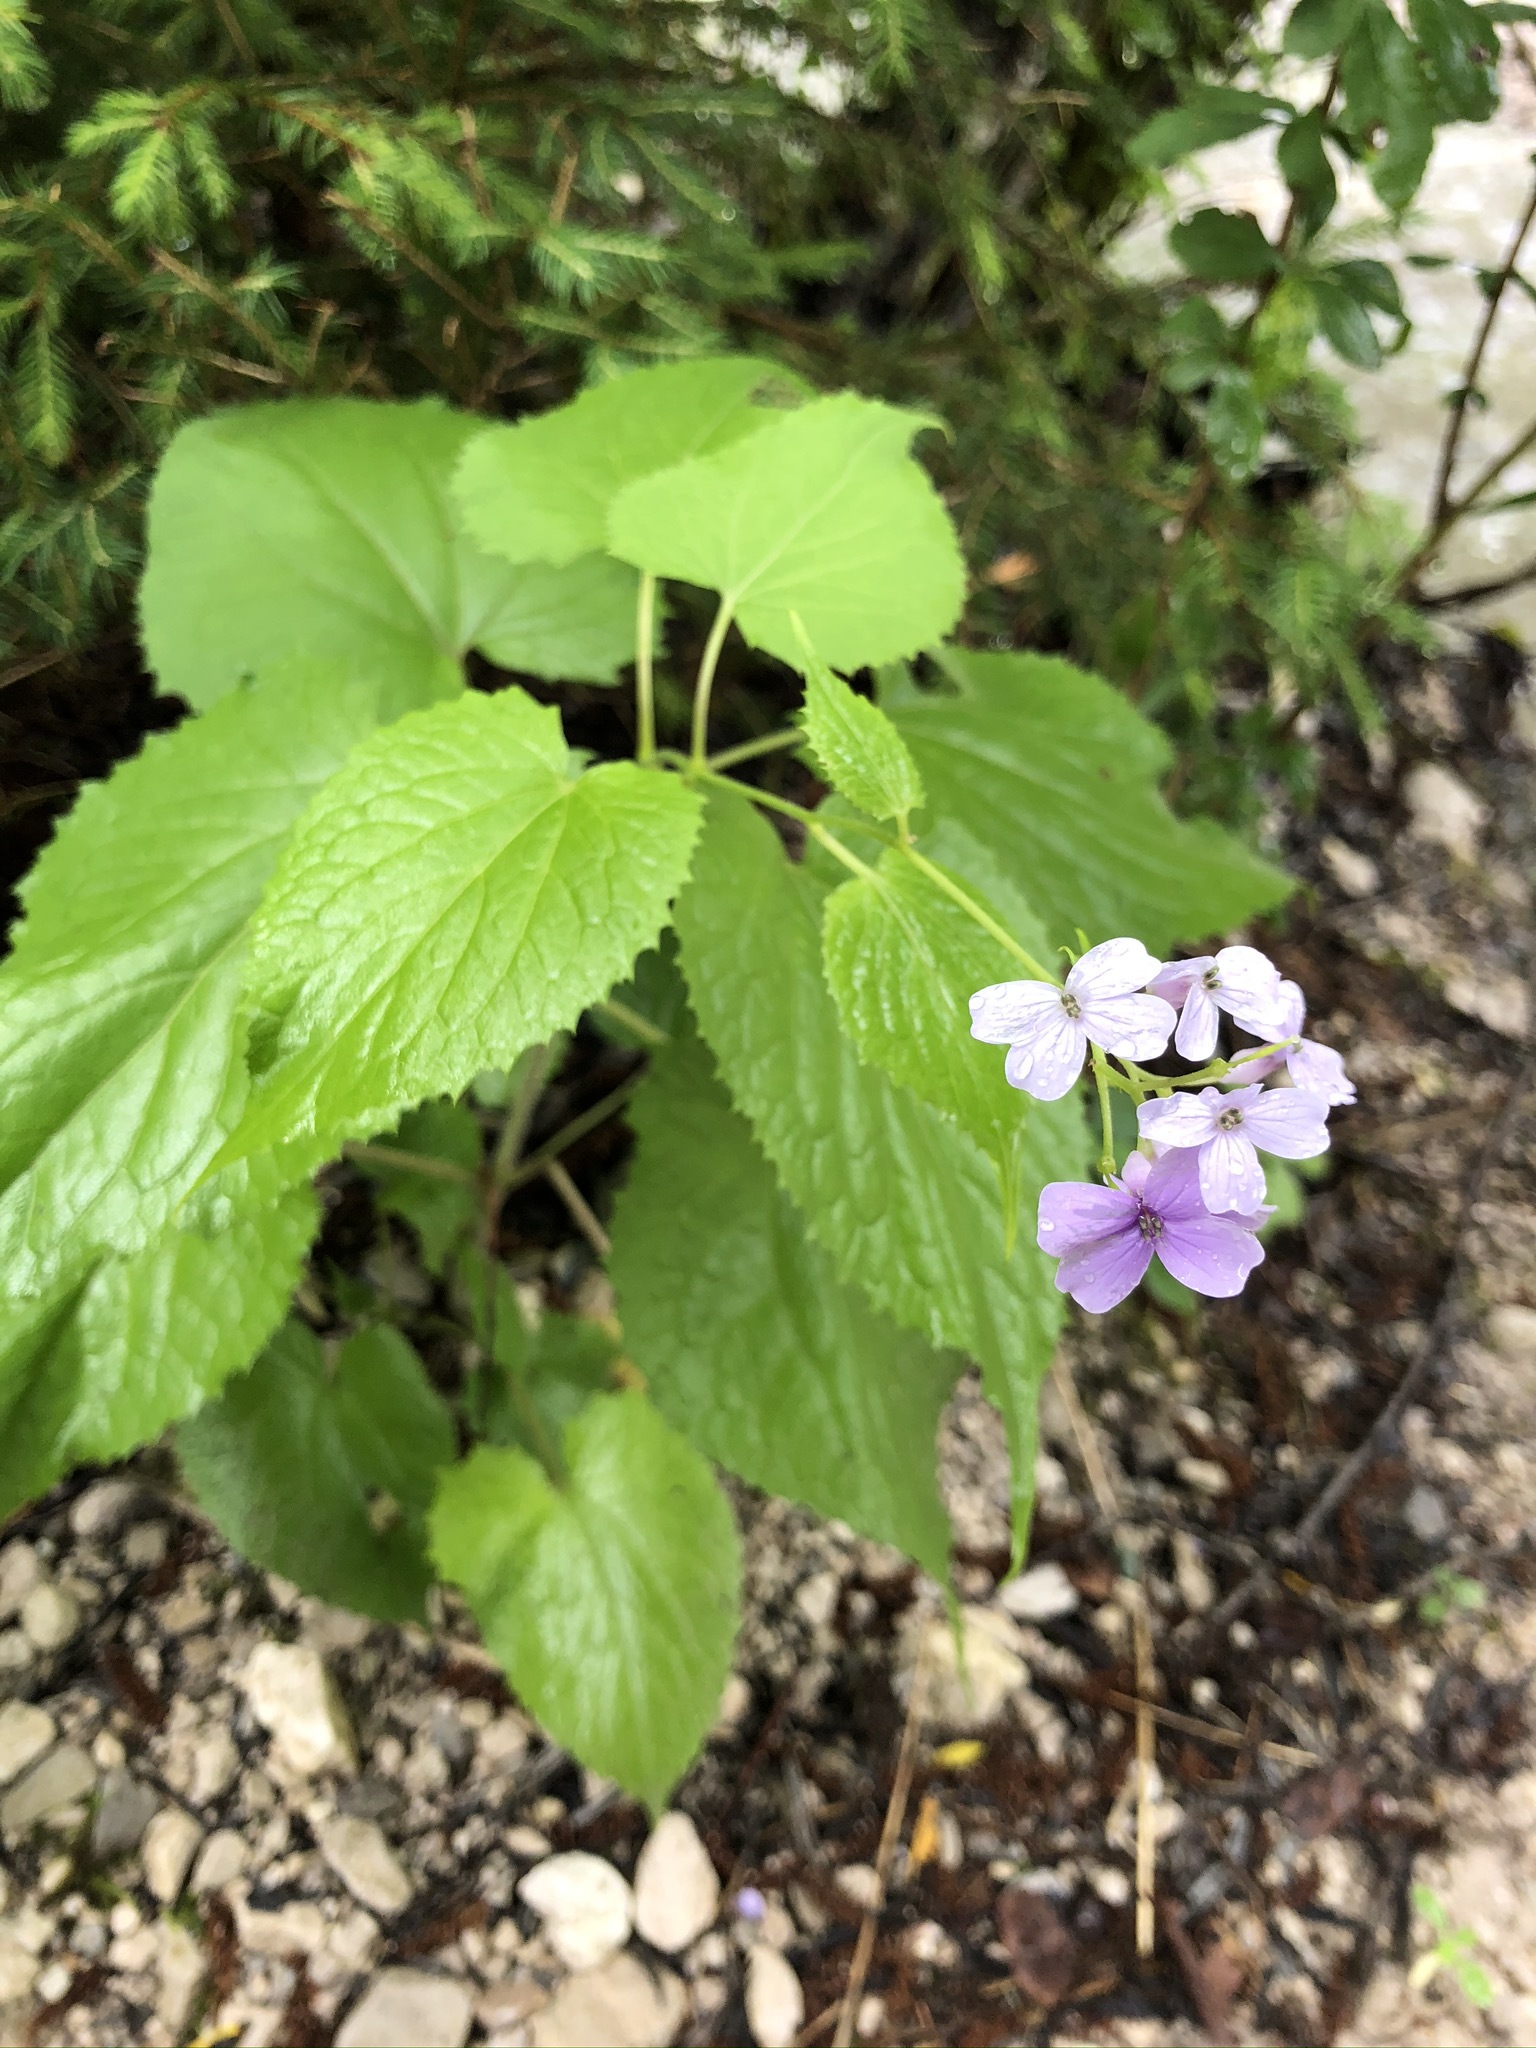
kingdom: Plantae
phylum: Tracheophyta
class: Magnoliopsida
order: Brassicales
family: Brassicaceae
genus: Lunaria
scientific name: Lunaria rediviva
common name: Perennial honesty
